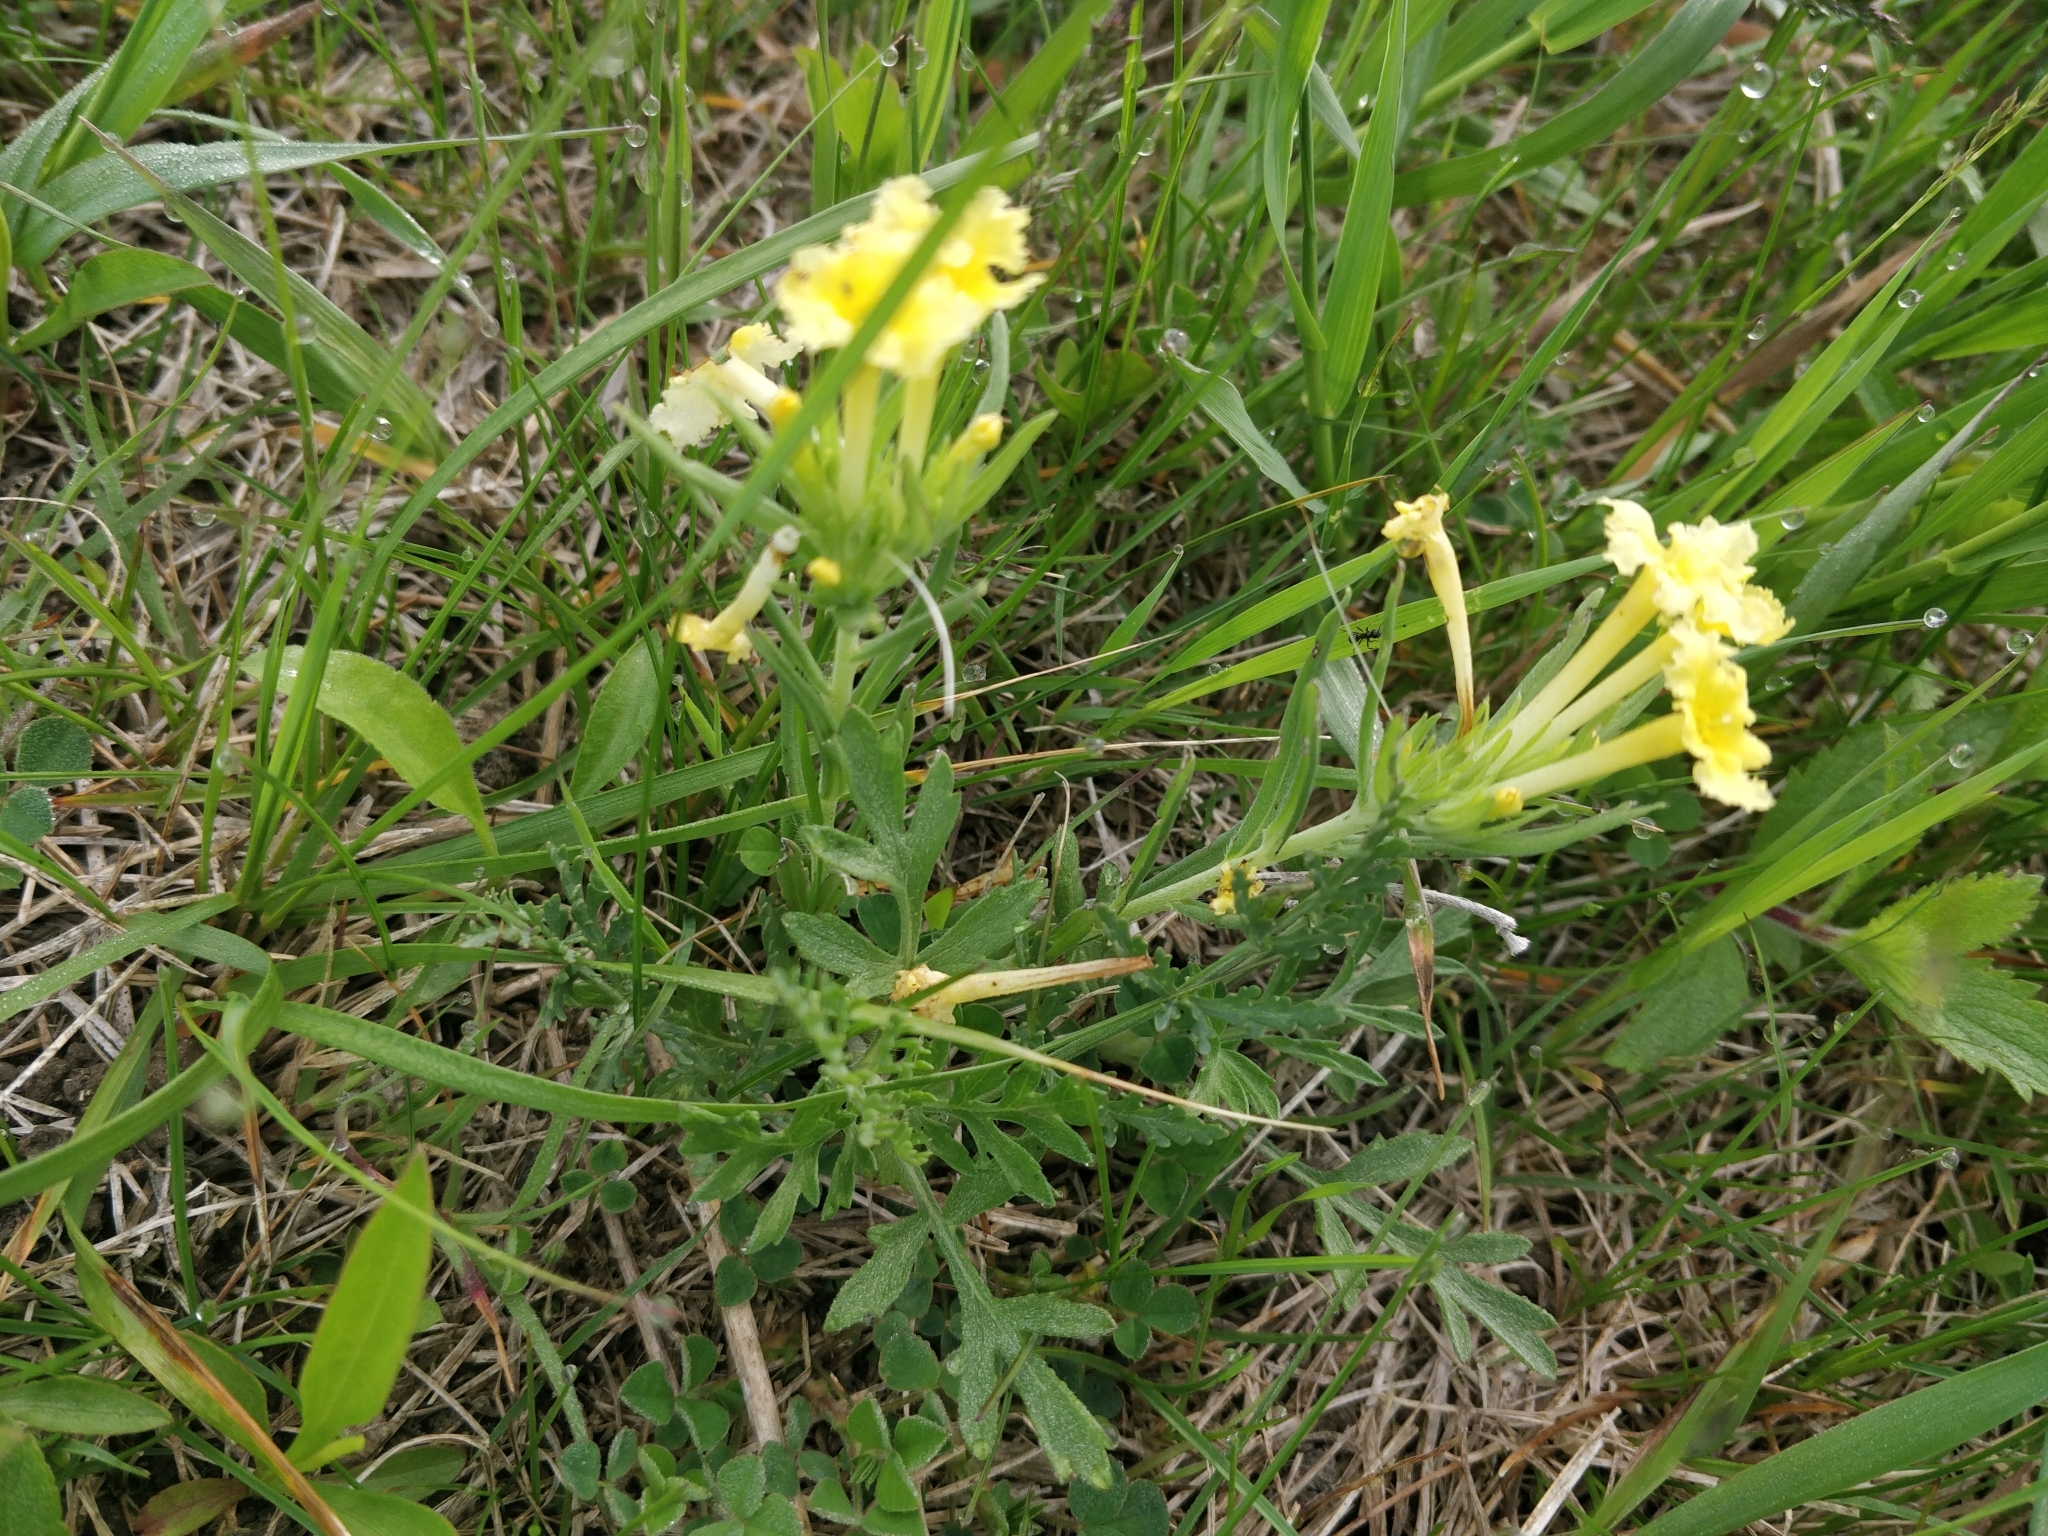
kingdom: Plantae
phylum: Tracheophyta
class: Magnoliopsida
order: Boraginales
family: Boraginaceae
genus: Lithospermum
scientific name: Lithospermum incisum
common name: Fringed gromwell
